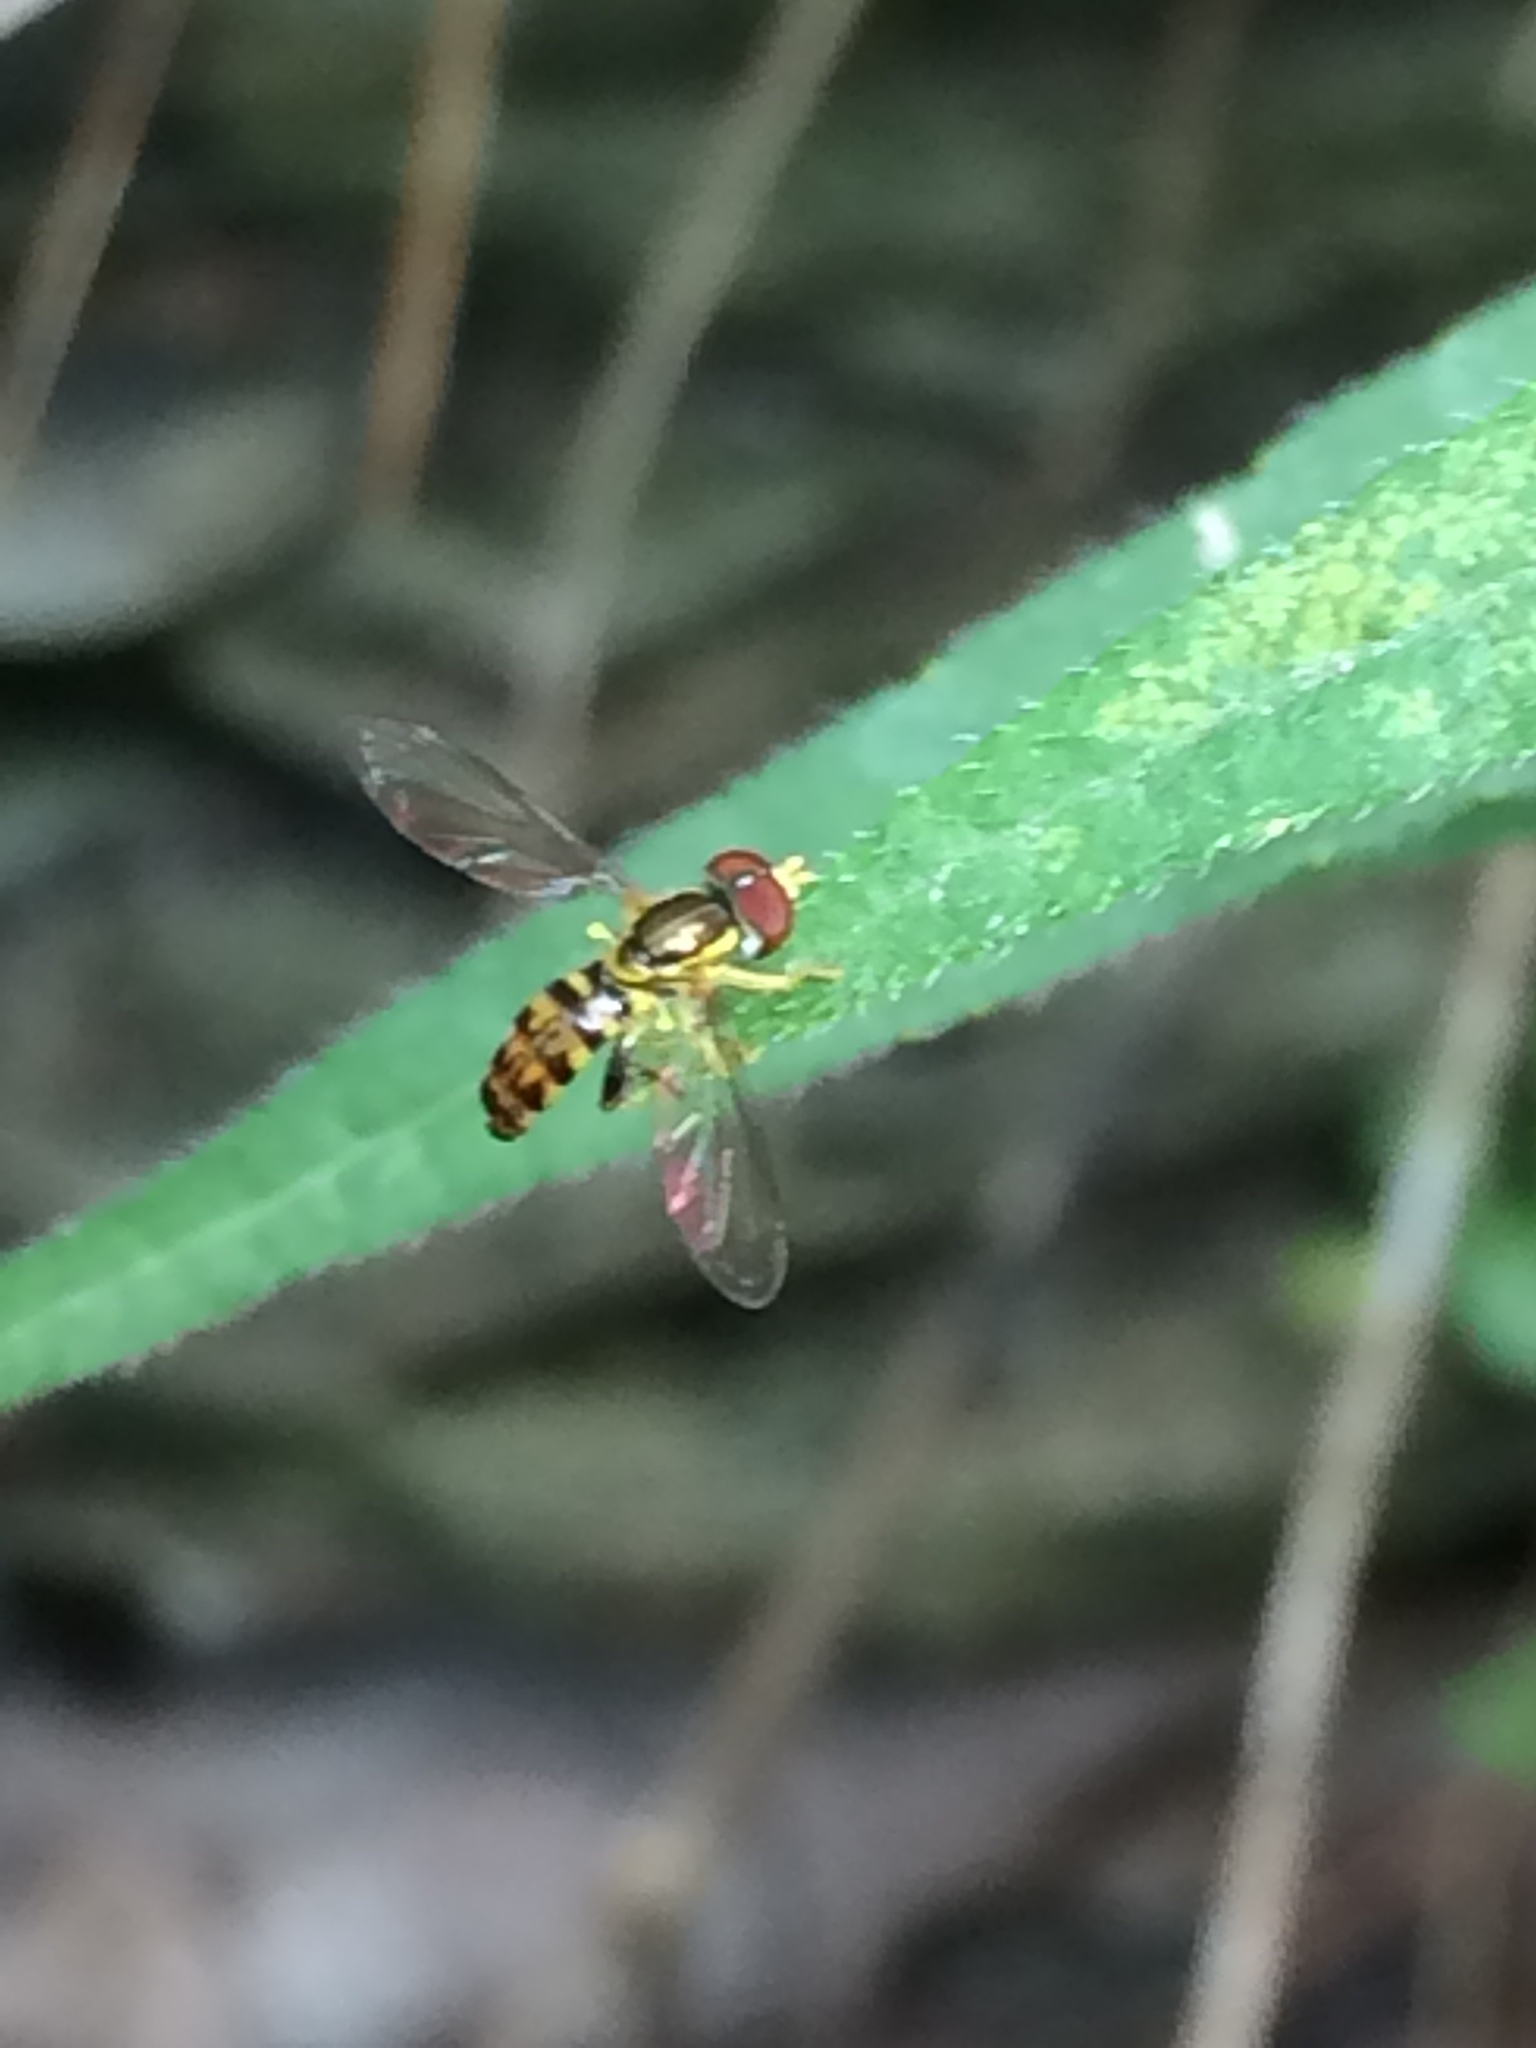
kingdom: Animalia
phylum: Arthropoda
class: Insecta
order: Diptera
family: Syrphidae
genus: Toxomerus
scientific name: Toxomerus geminatus
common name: Eastern calligrapher
